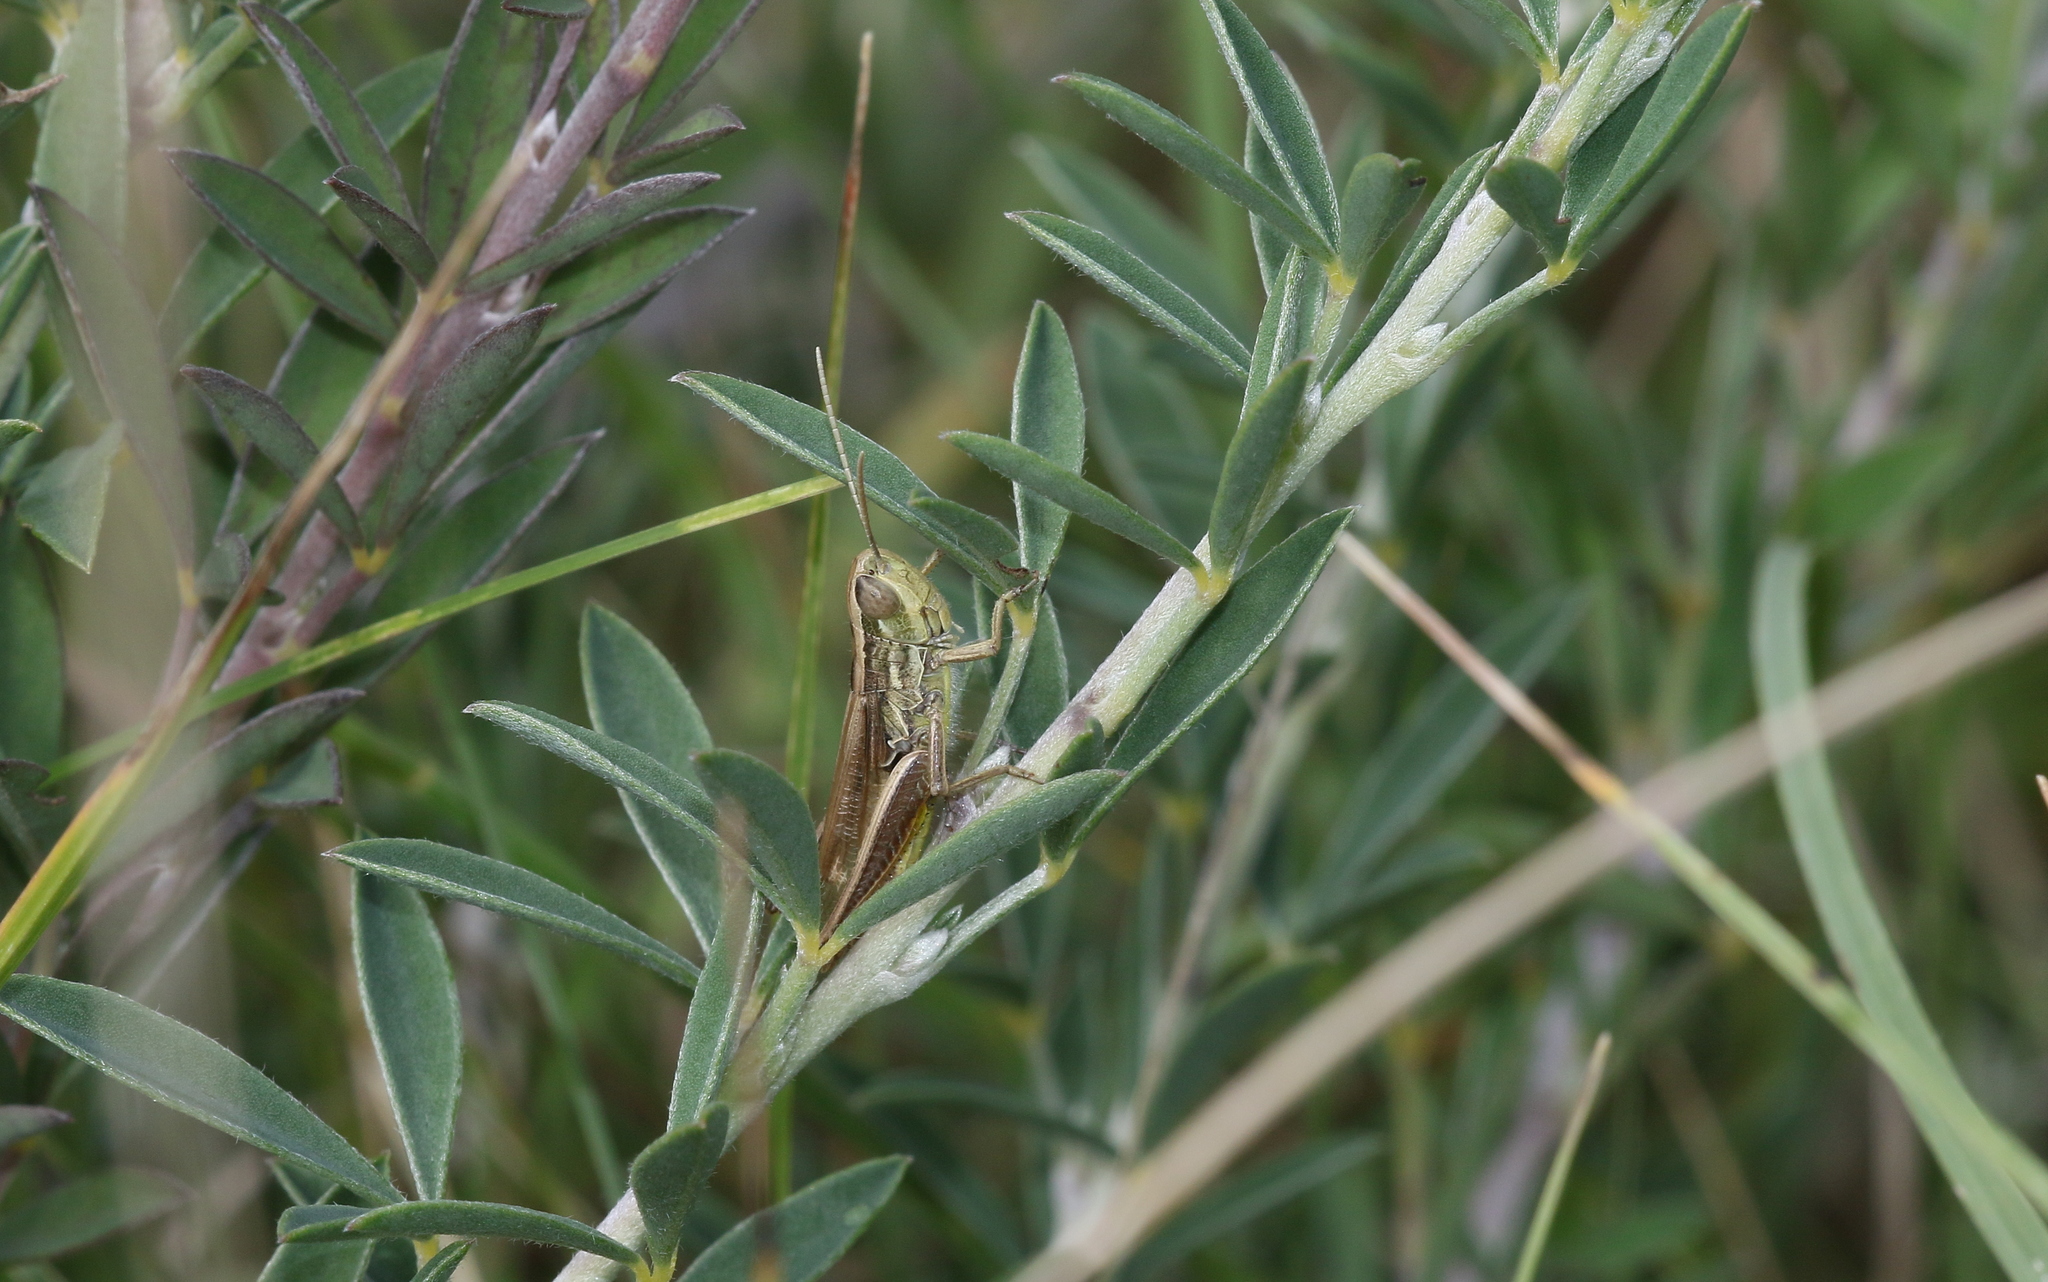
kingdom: Animalia
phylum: Arthropoda
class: Insecta
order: Orthoptera
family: Acrididae
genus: Euchorthippus
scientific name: Euchorthippus declivus
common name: Common straw grasshopper
